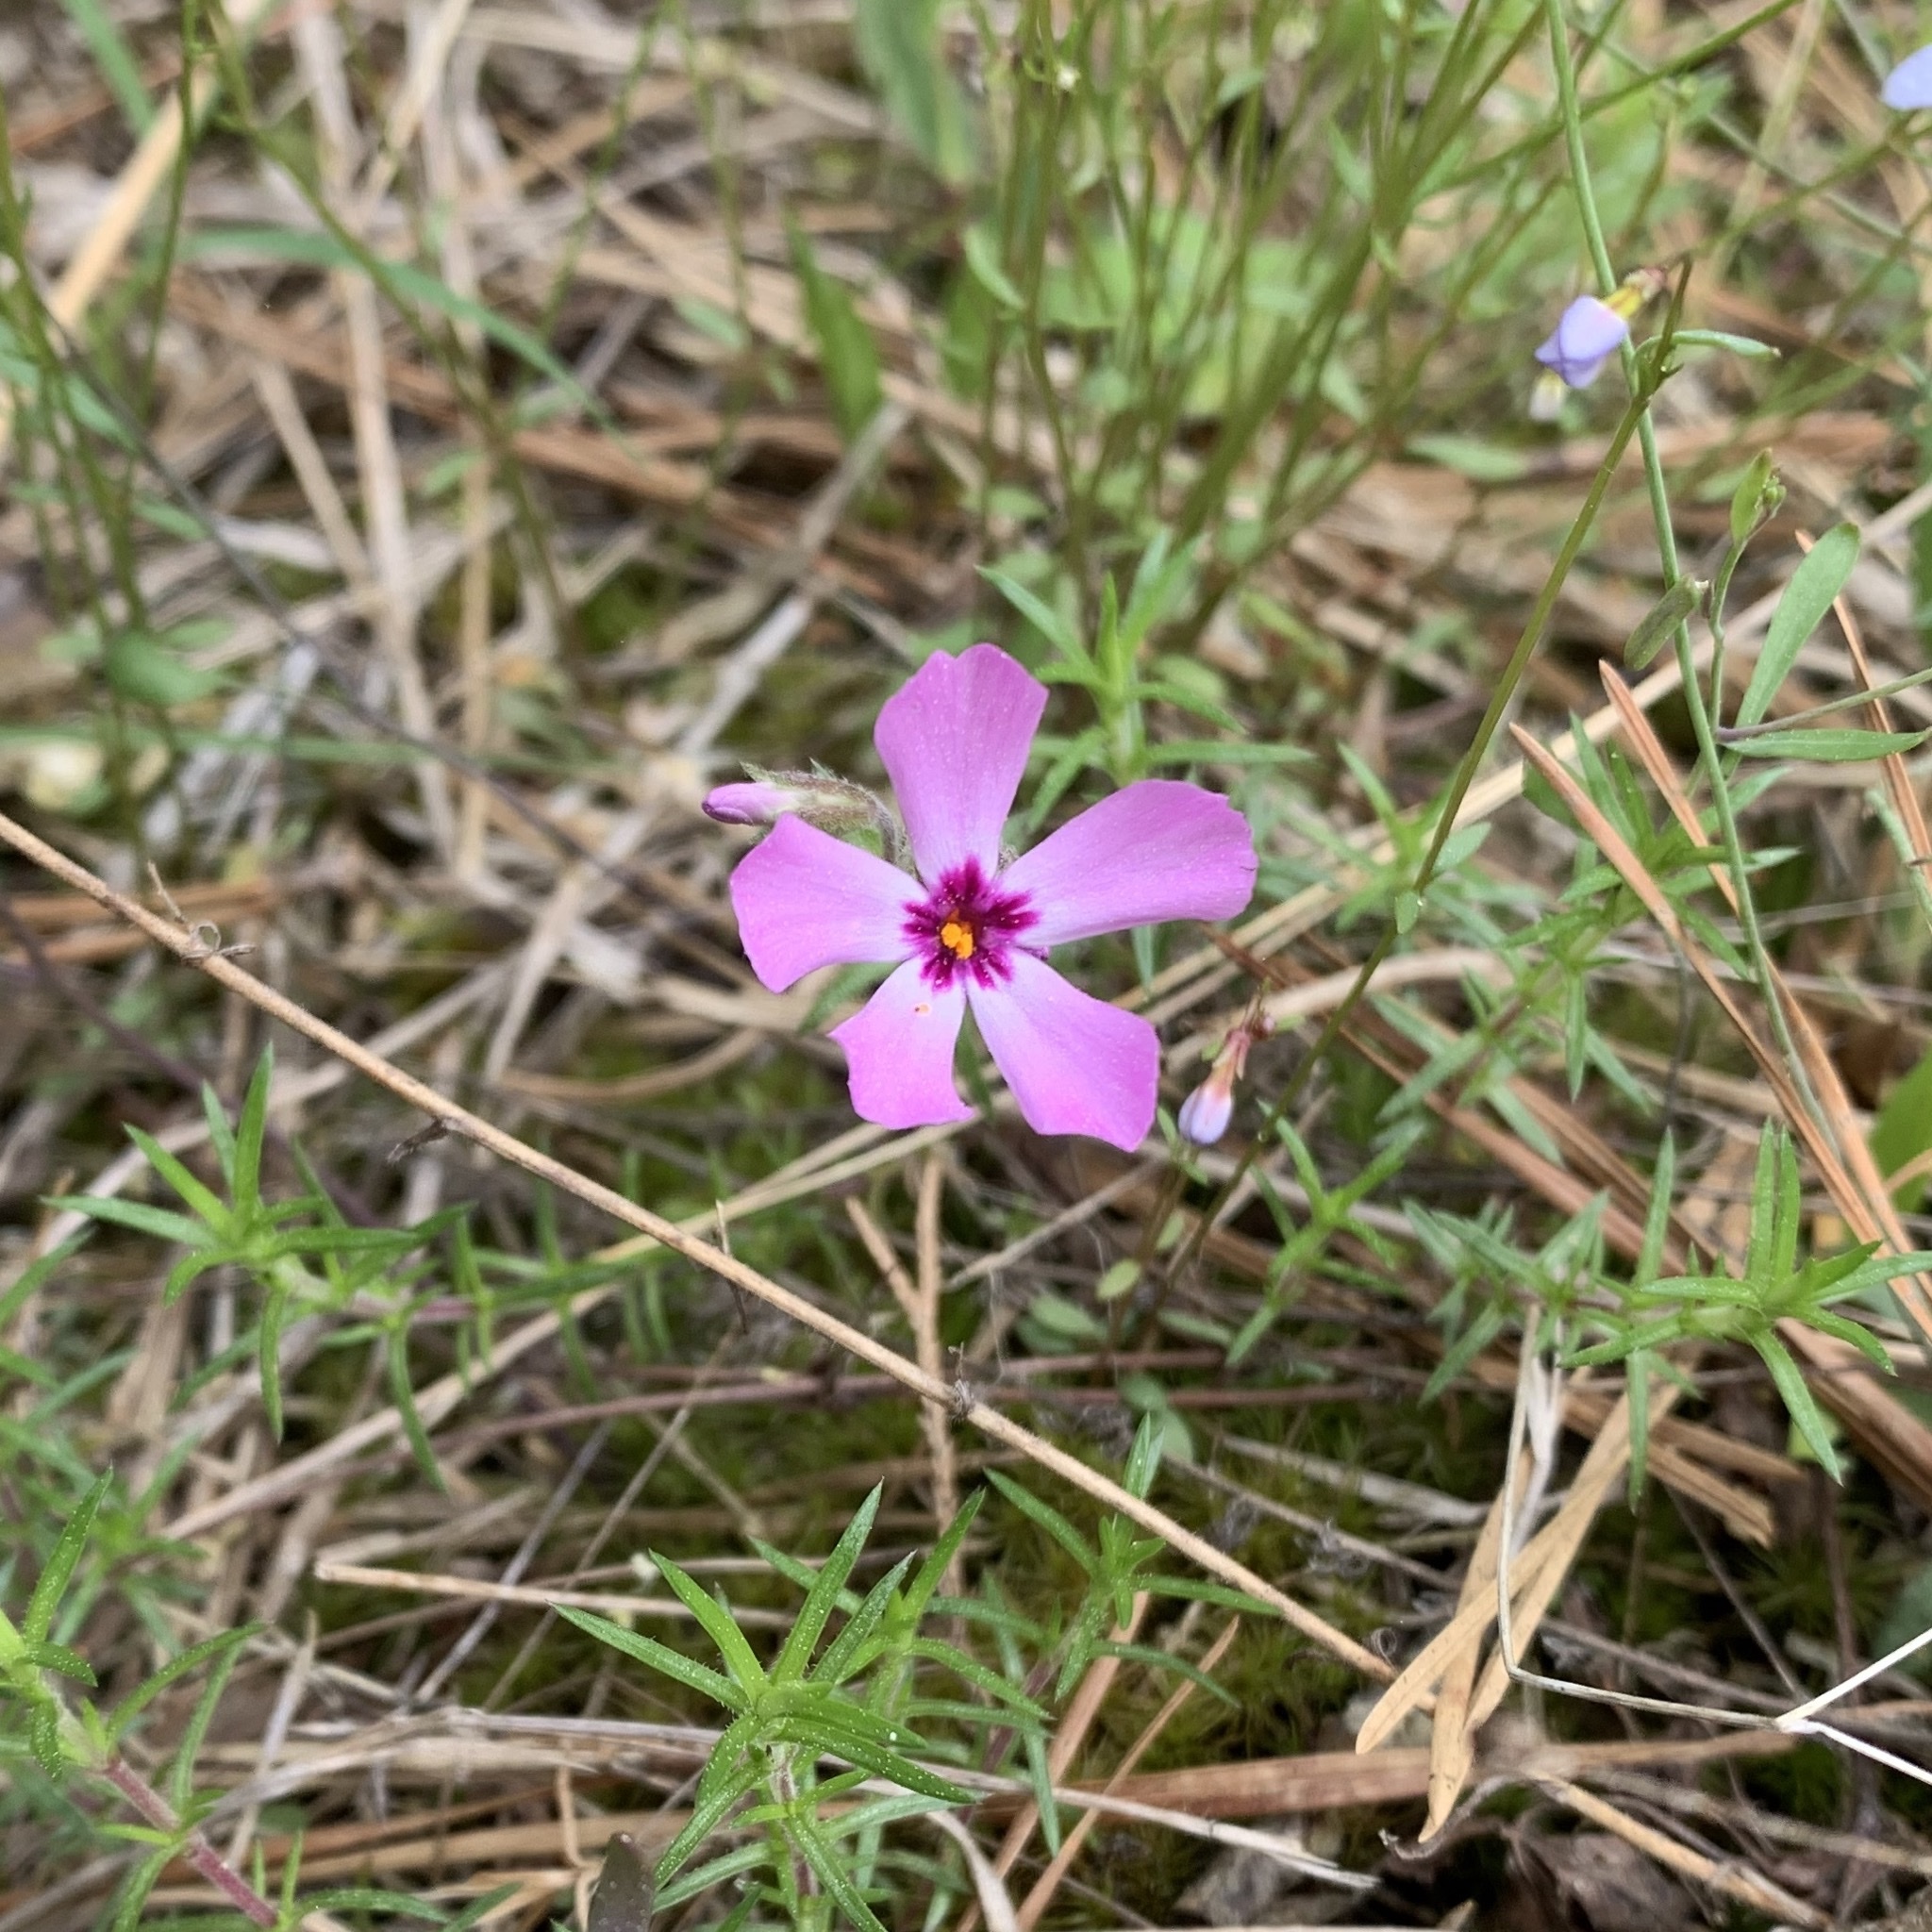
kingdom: Plantae
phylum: Tracheophyta
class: Magnoliopsida
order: Ericales
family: Polemoniaceae
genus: Phlox
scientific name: Phlox subulata
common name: Moss phlox
